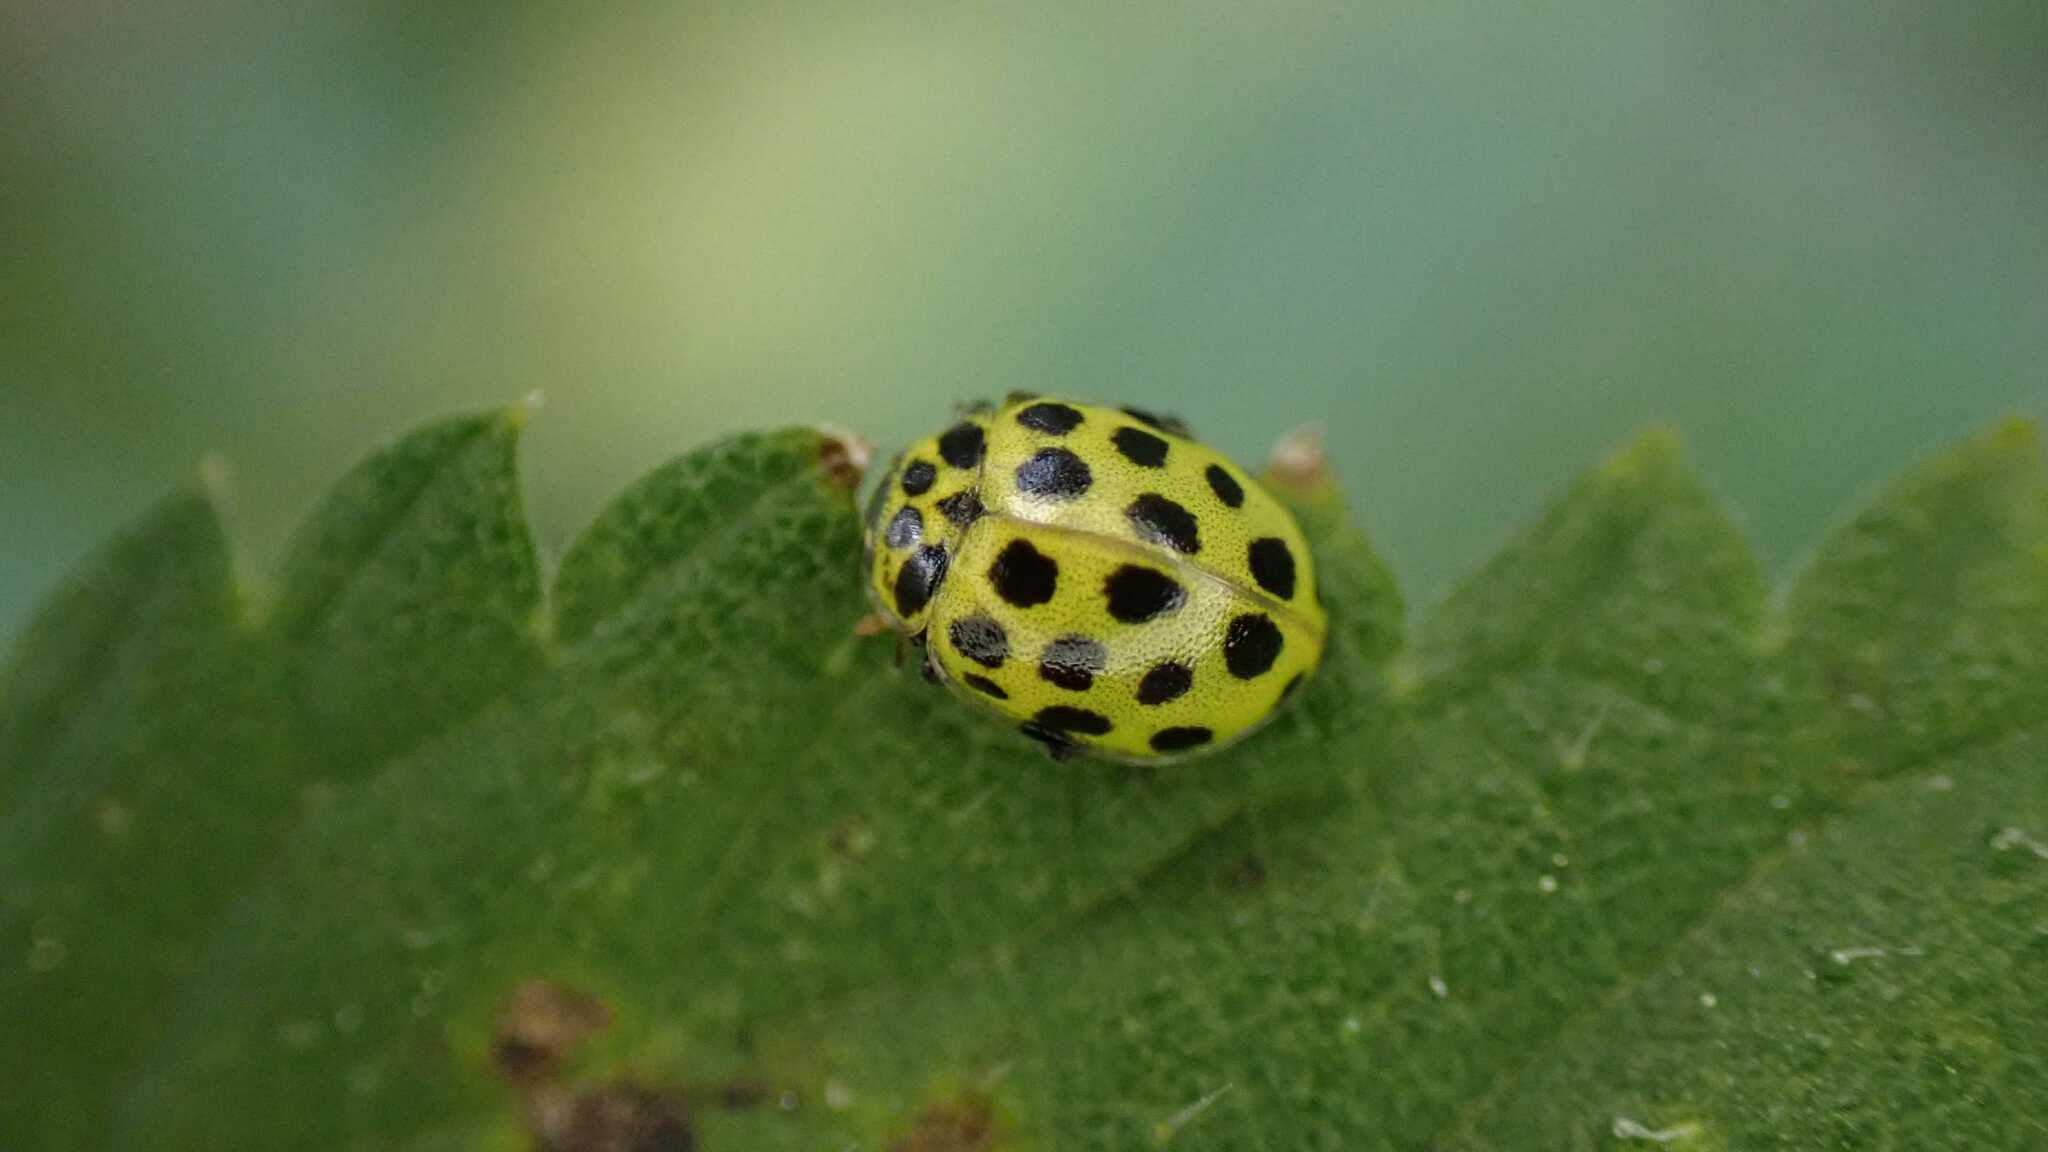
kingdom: Animalia
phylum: Arthropoda
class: Insecta
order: Coleoptera
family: Coccinellidae
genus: Psyllobora
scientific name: Psyllobora vigintiduopunctata
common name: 22-spot ladybird
